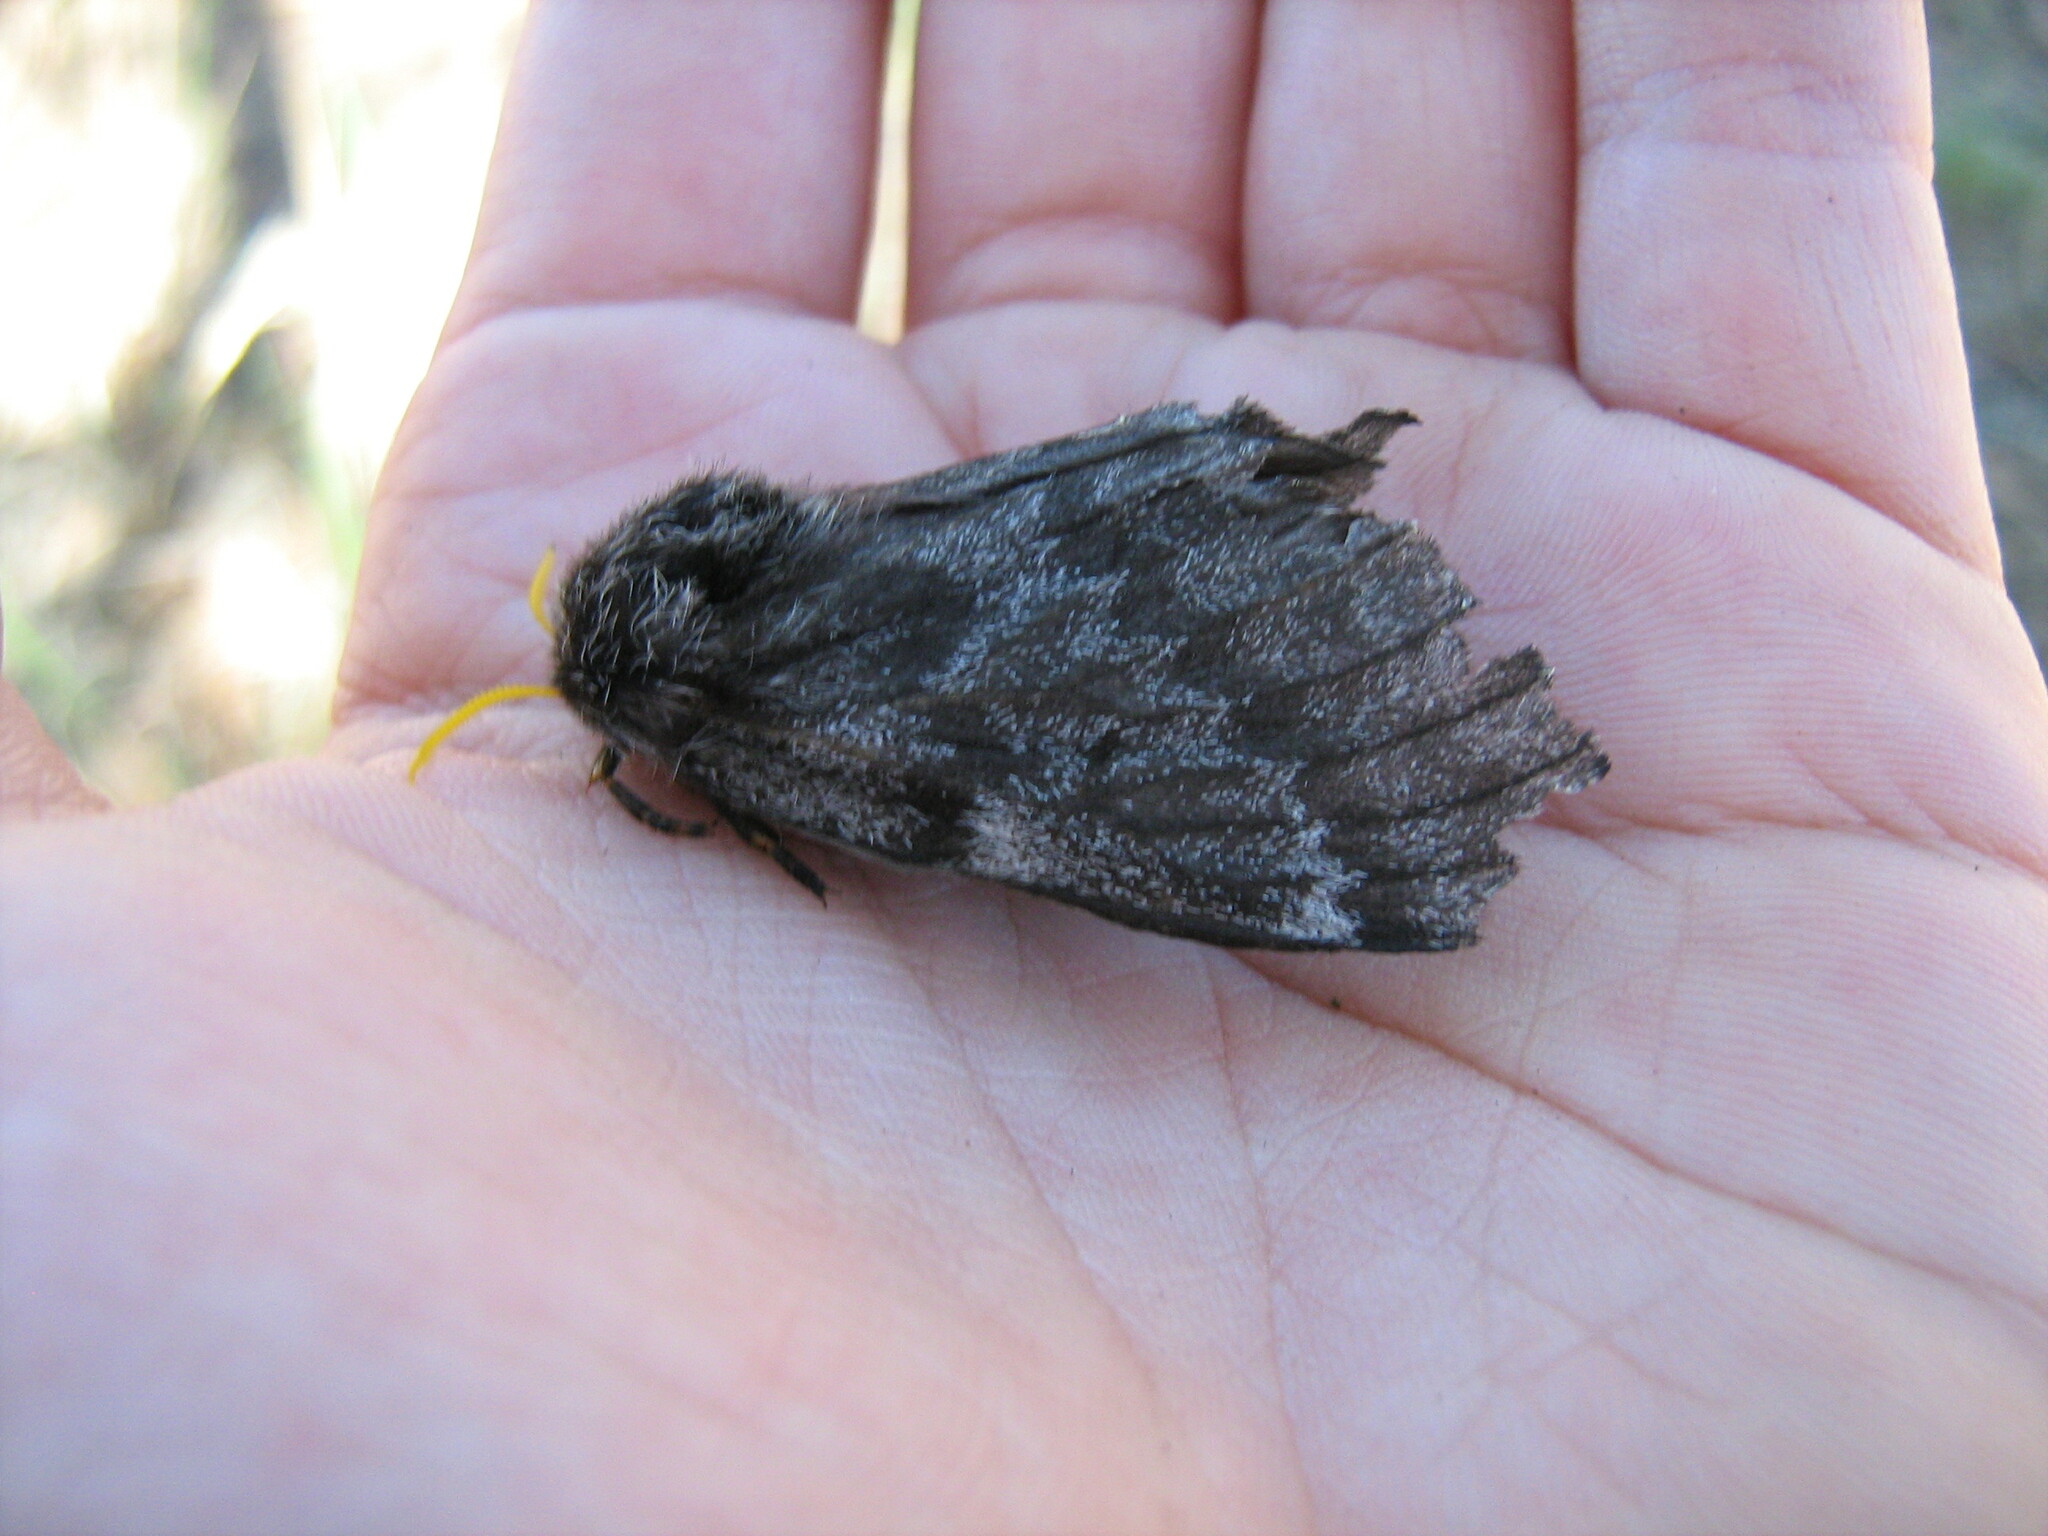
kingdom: Animalia
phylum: Arthropoda
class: Insecta
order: Lepidoptera
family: Saturniidae
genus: Coloradia
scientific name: Coloradia pandora
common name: Pandora pinemoth
